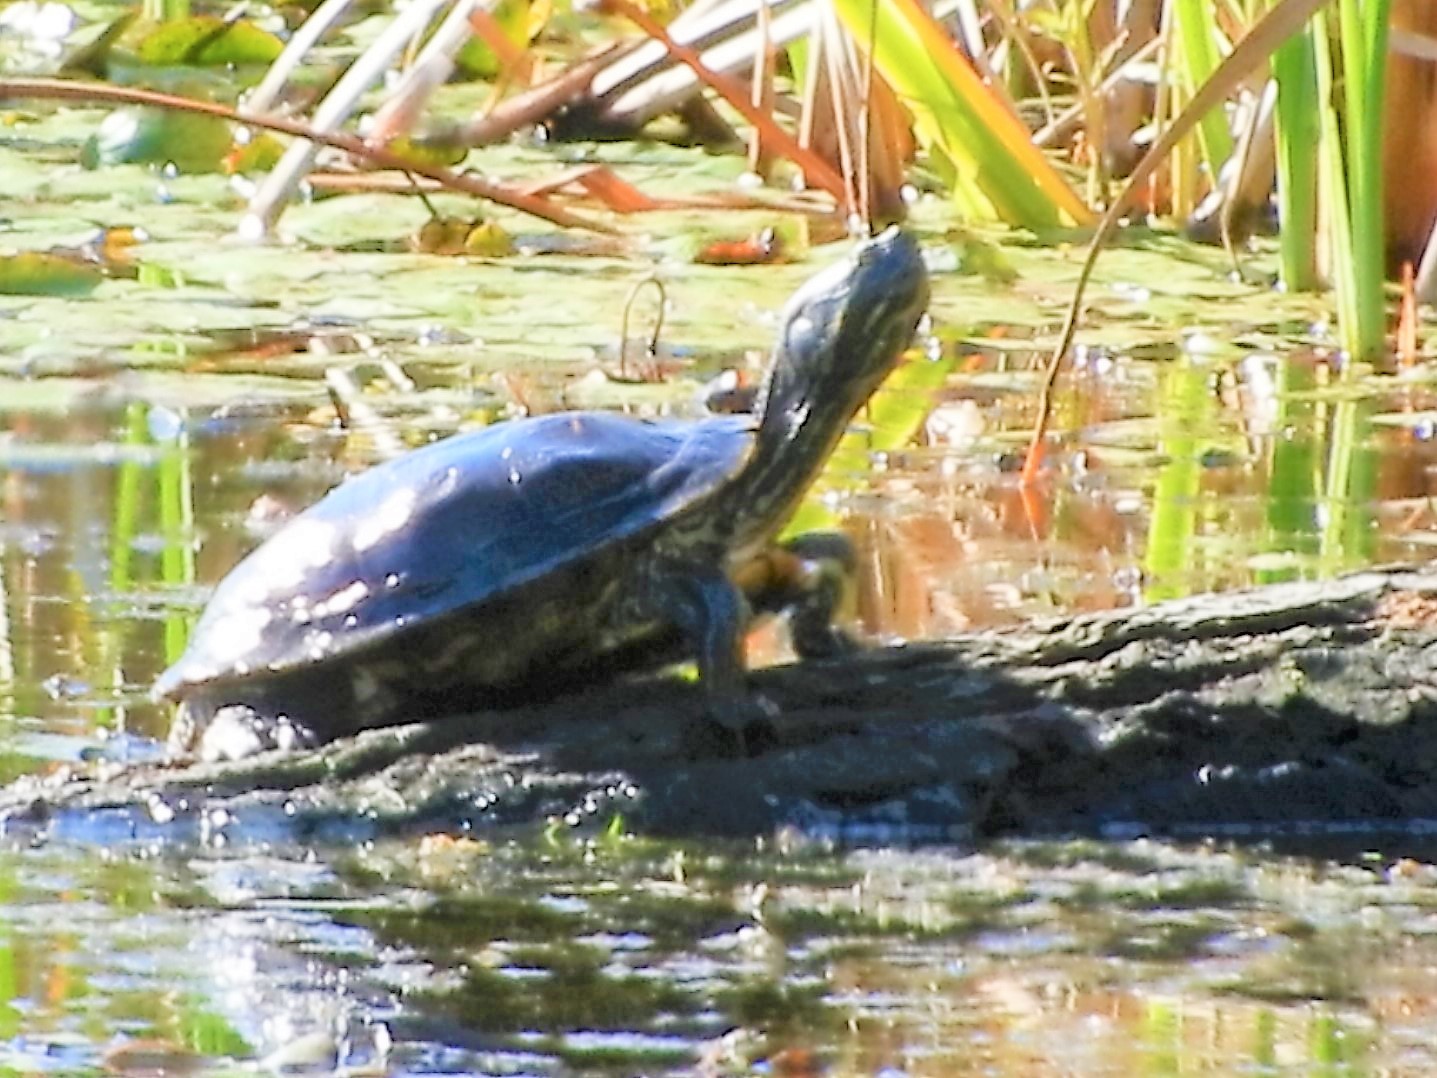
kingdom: Animalia
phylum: Chordata
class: Testudines
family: Emydidae
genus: Trachemys
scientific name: Trachemys scripta
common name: Slider
